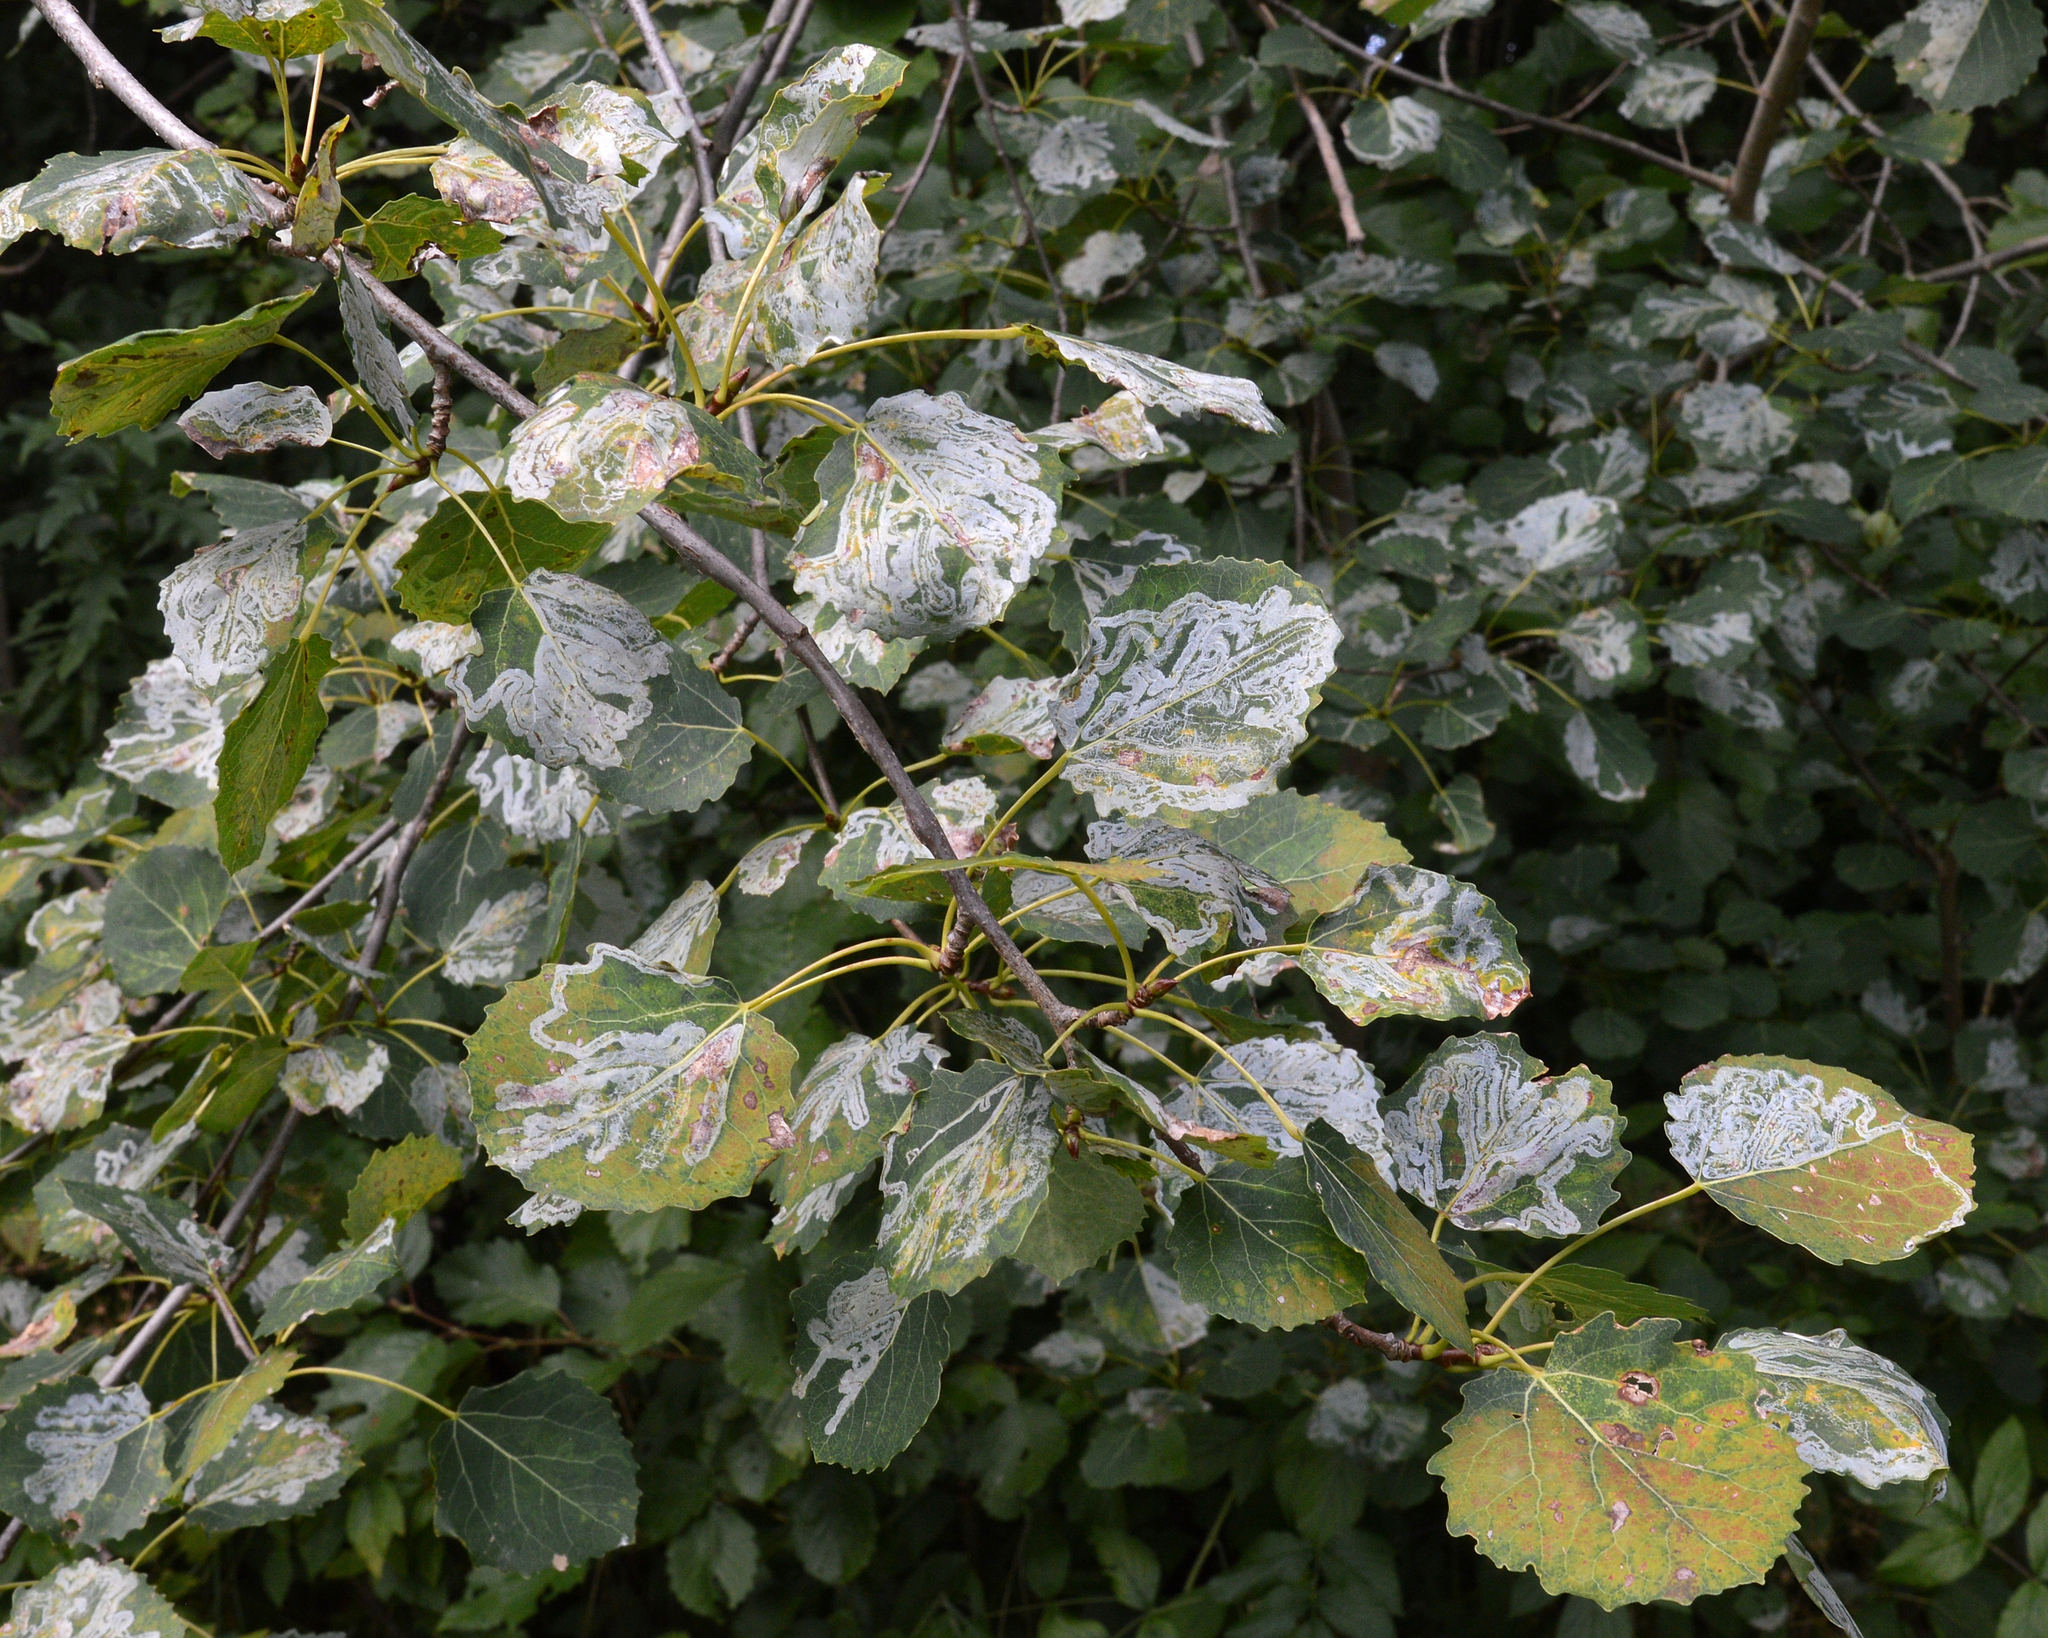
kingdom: Plantae
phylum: Tracheophyta
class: Magnoliopsida
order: Malpighiales
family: Salicaceae
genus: Populus
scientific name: Populus tremula
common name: European aspen
